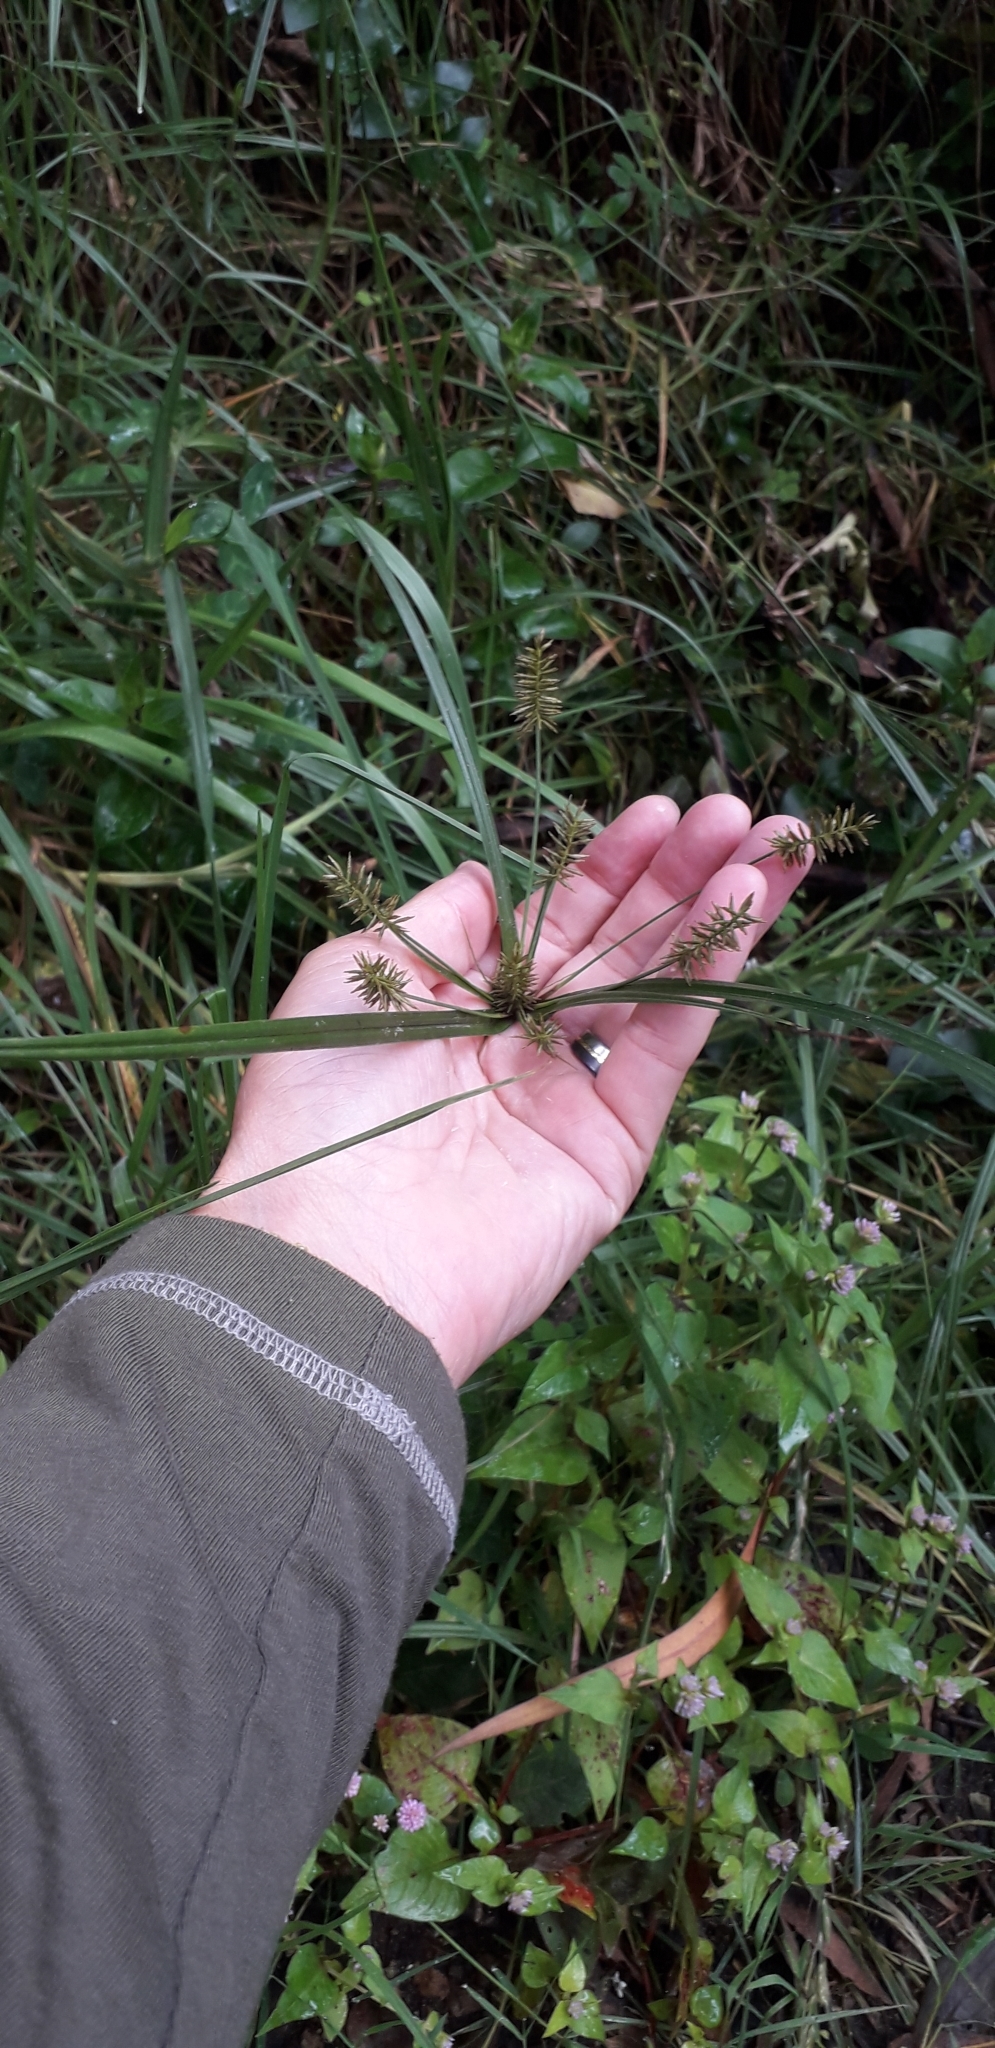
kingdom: Plantae
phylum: Tracheophyta
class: Liliopsida
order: Poales
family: Cyperaceae
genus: Cyperus
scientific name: Cyperus hermaphroditus
